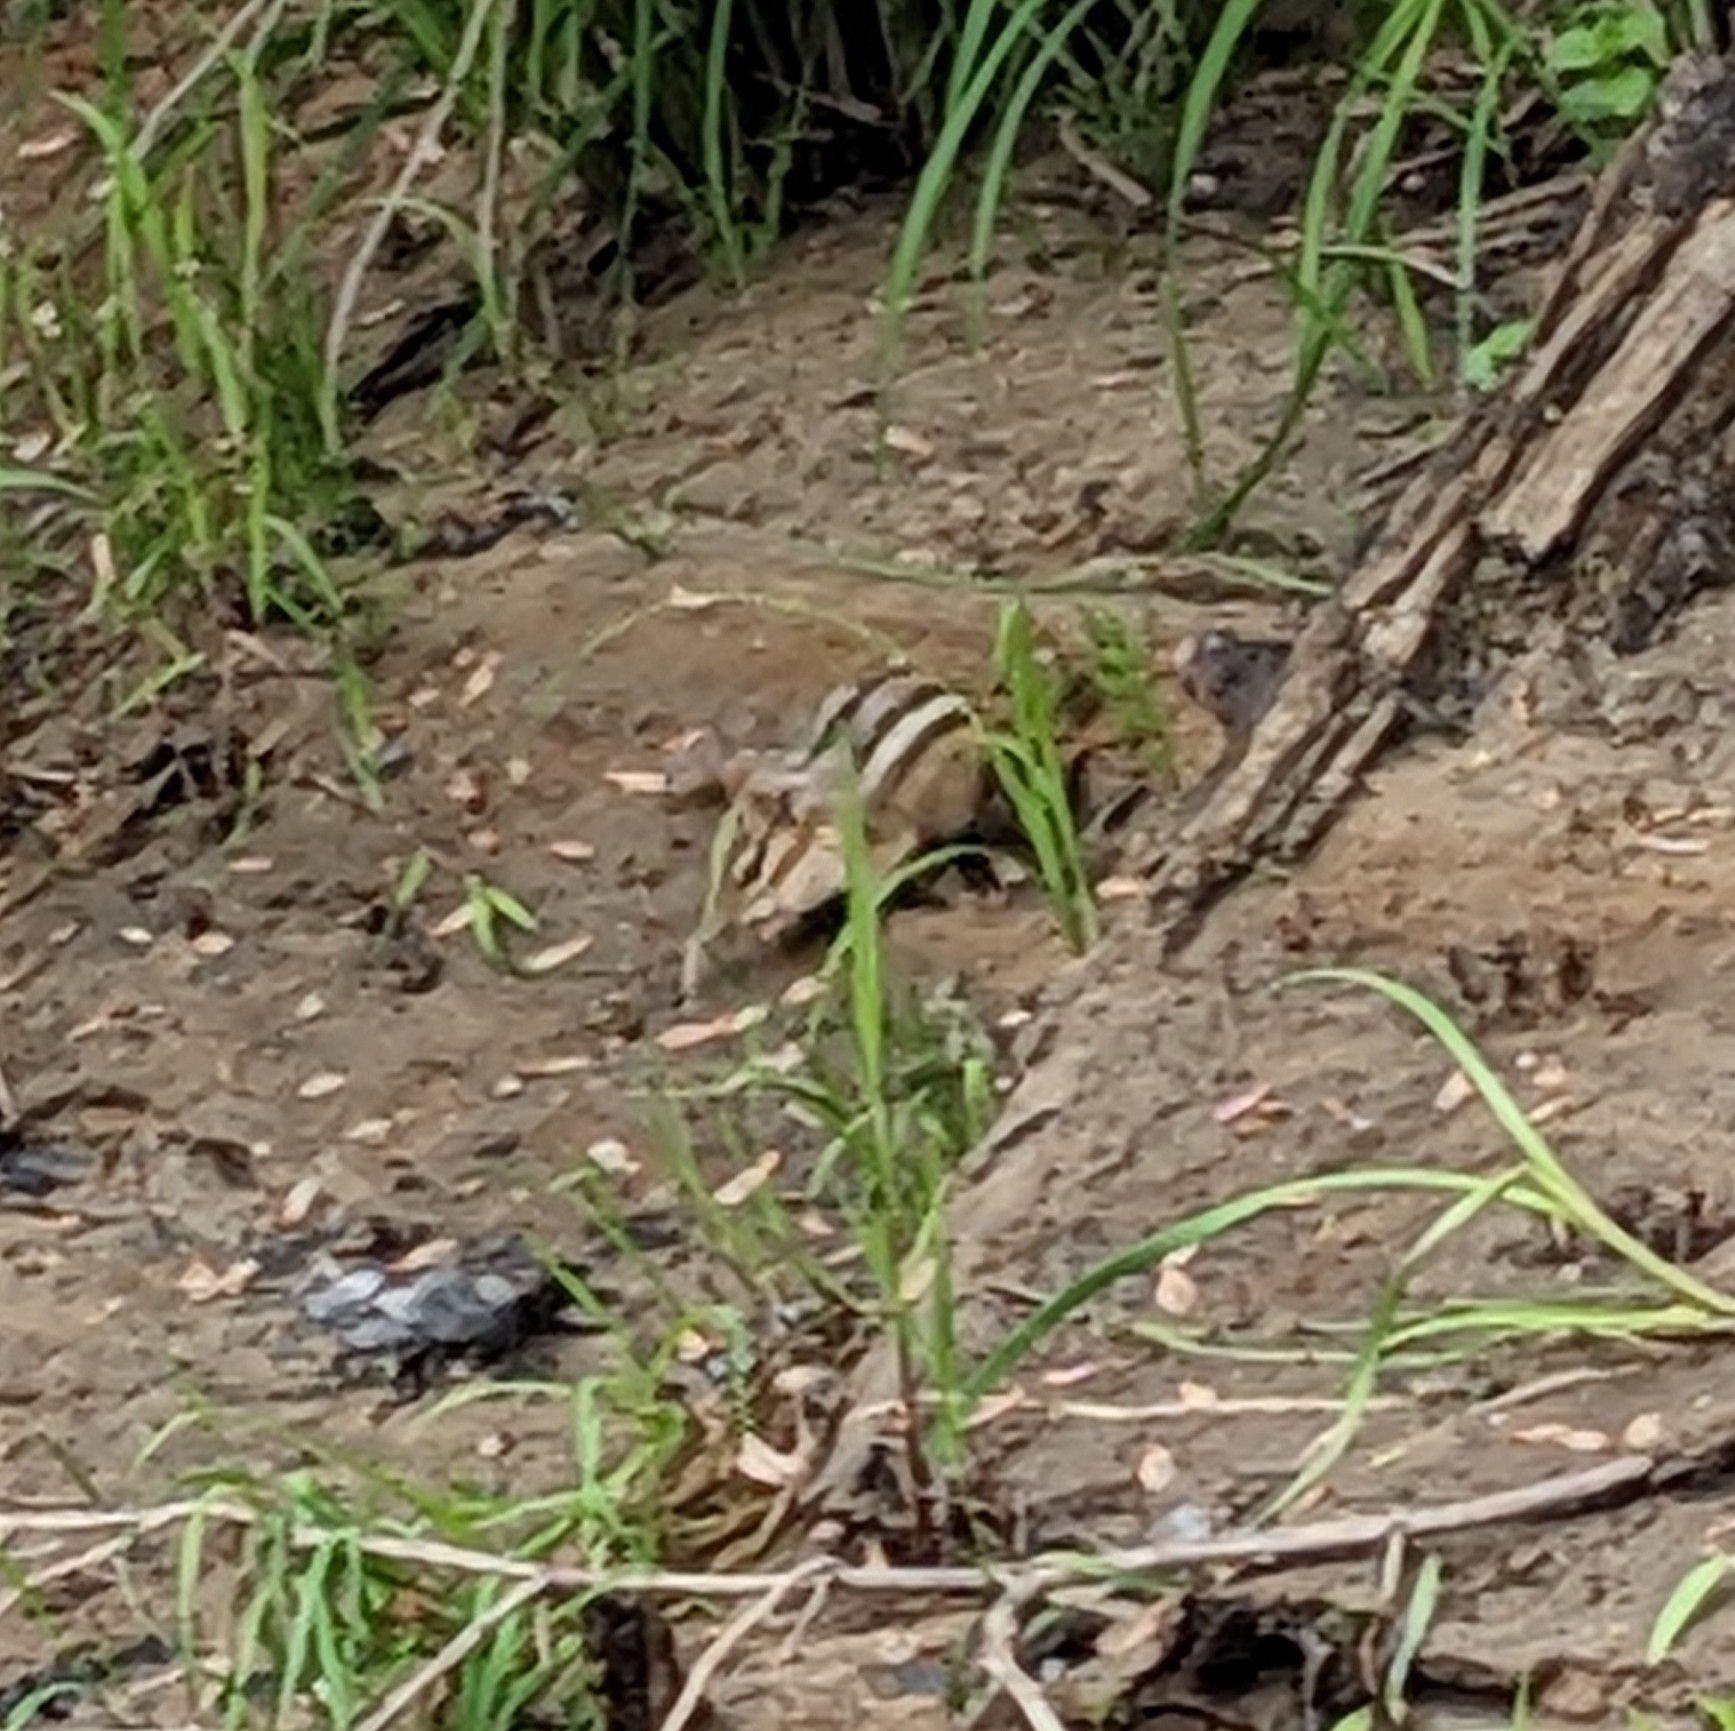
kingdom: Animalia
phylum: Chordata
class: Mammalia
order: Rodentia
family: Sciuridae
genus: Tamias
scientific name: Tamias striatus
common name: Eastern chipmunk
